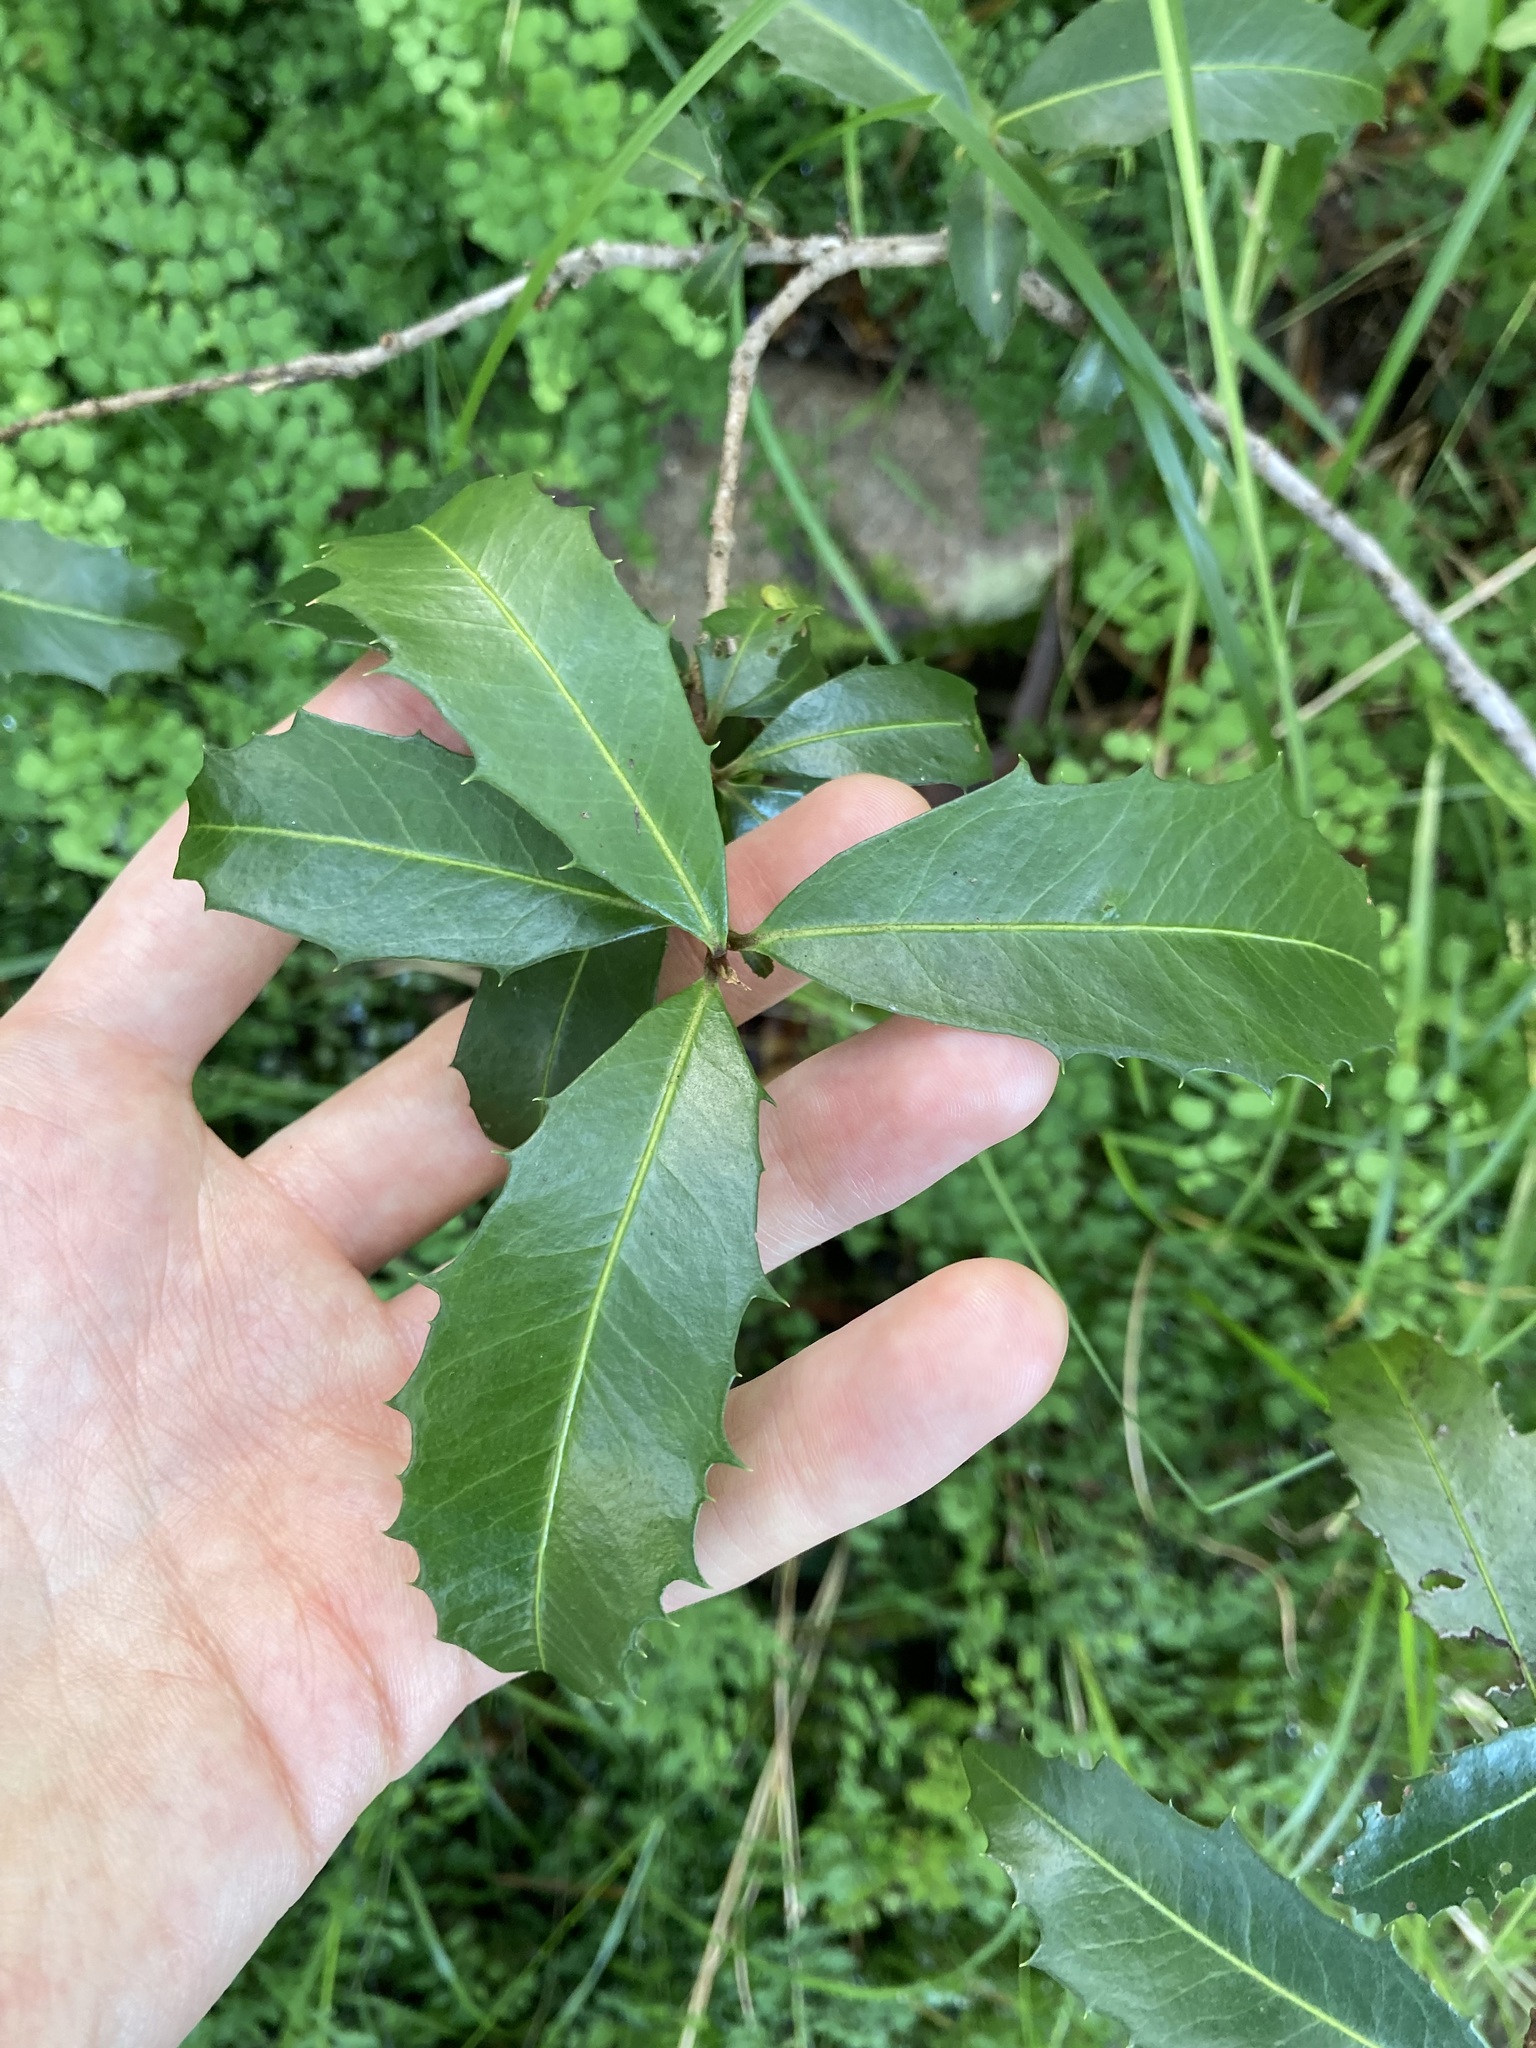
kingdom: Plantae
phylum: Tracheophyta
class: Magnoliopsida
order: Ericales
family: Primulaceae
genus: Myrsine
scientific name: Myrsine variabilis
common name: Brush muttonwood
